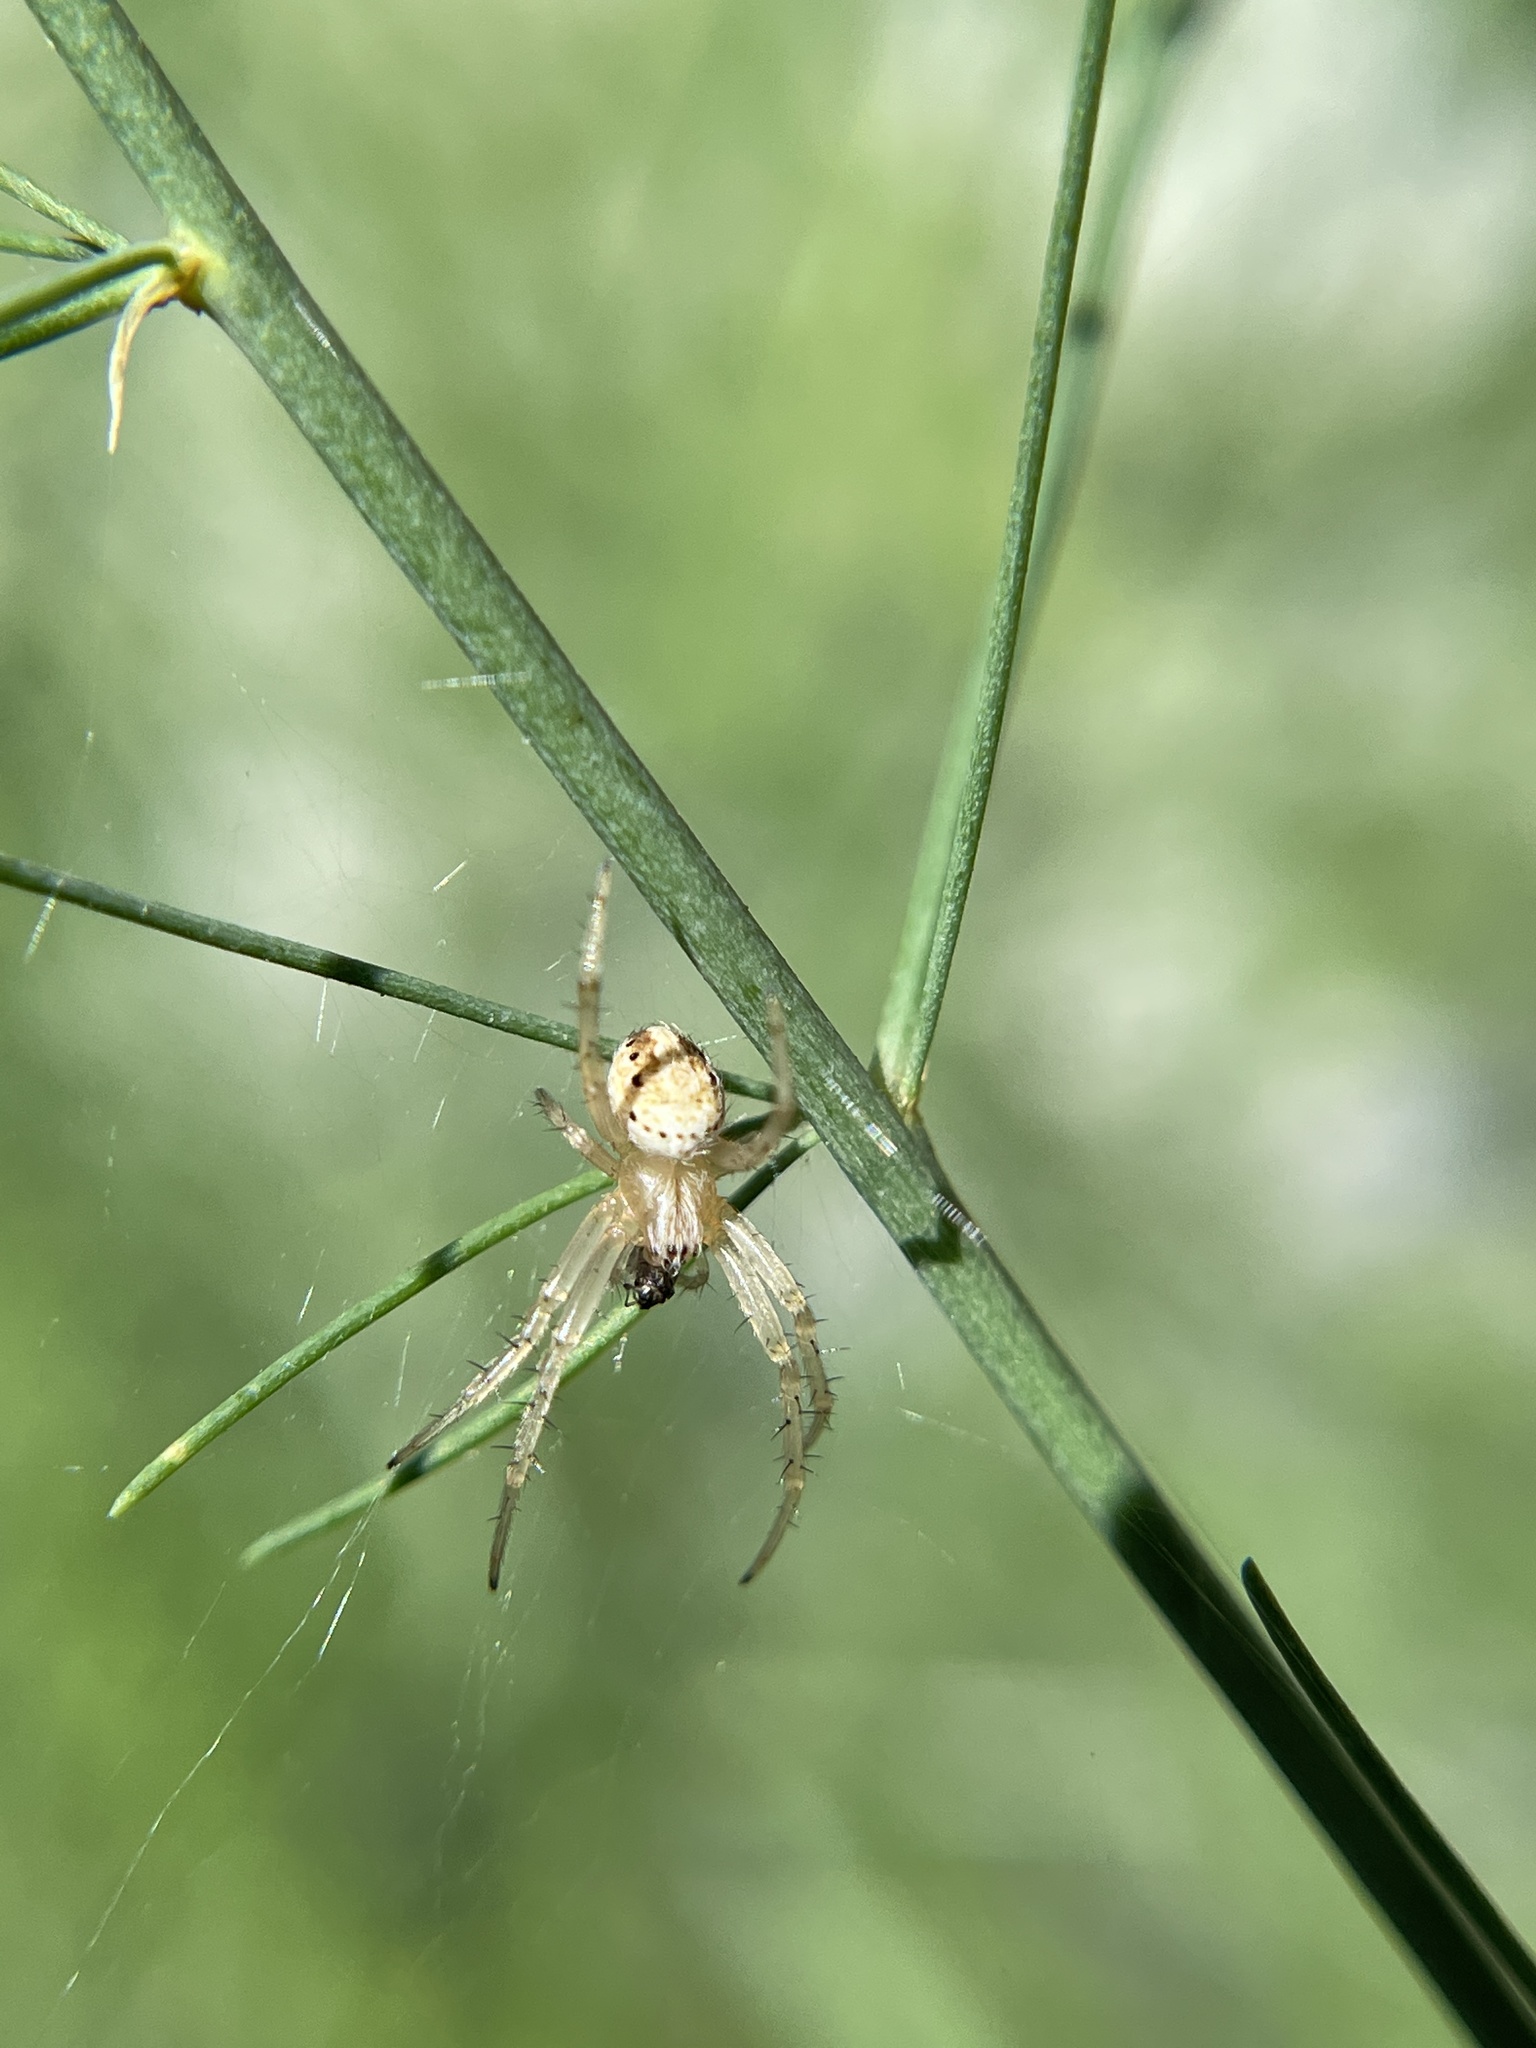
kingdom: Animalia
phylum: Arthropoda
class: Arachnida
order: Araneae
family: Araneidae
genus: Neoscona
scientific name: Neoscona oaxacensis
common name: Orb weavers
